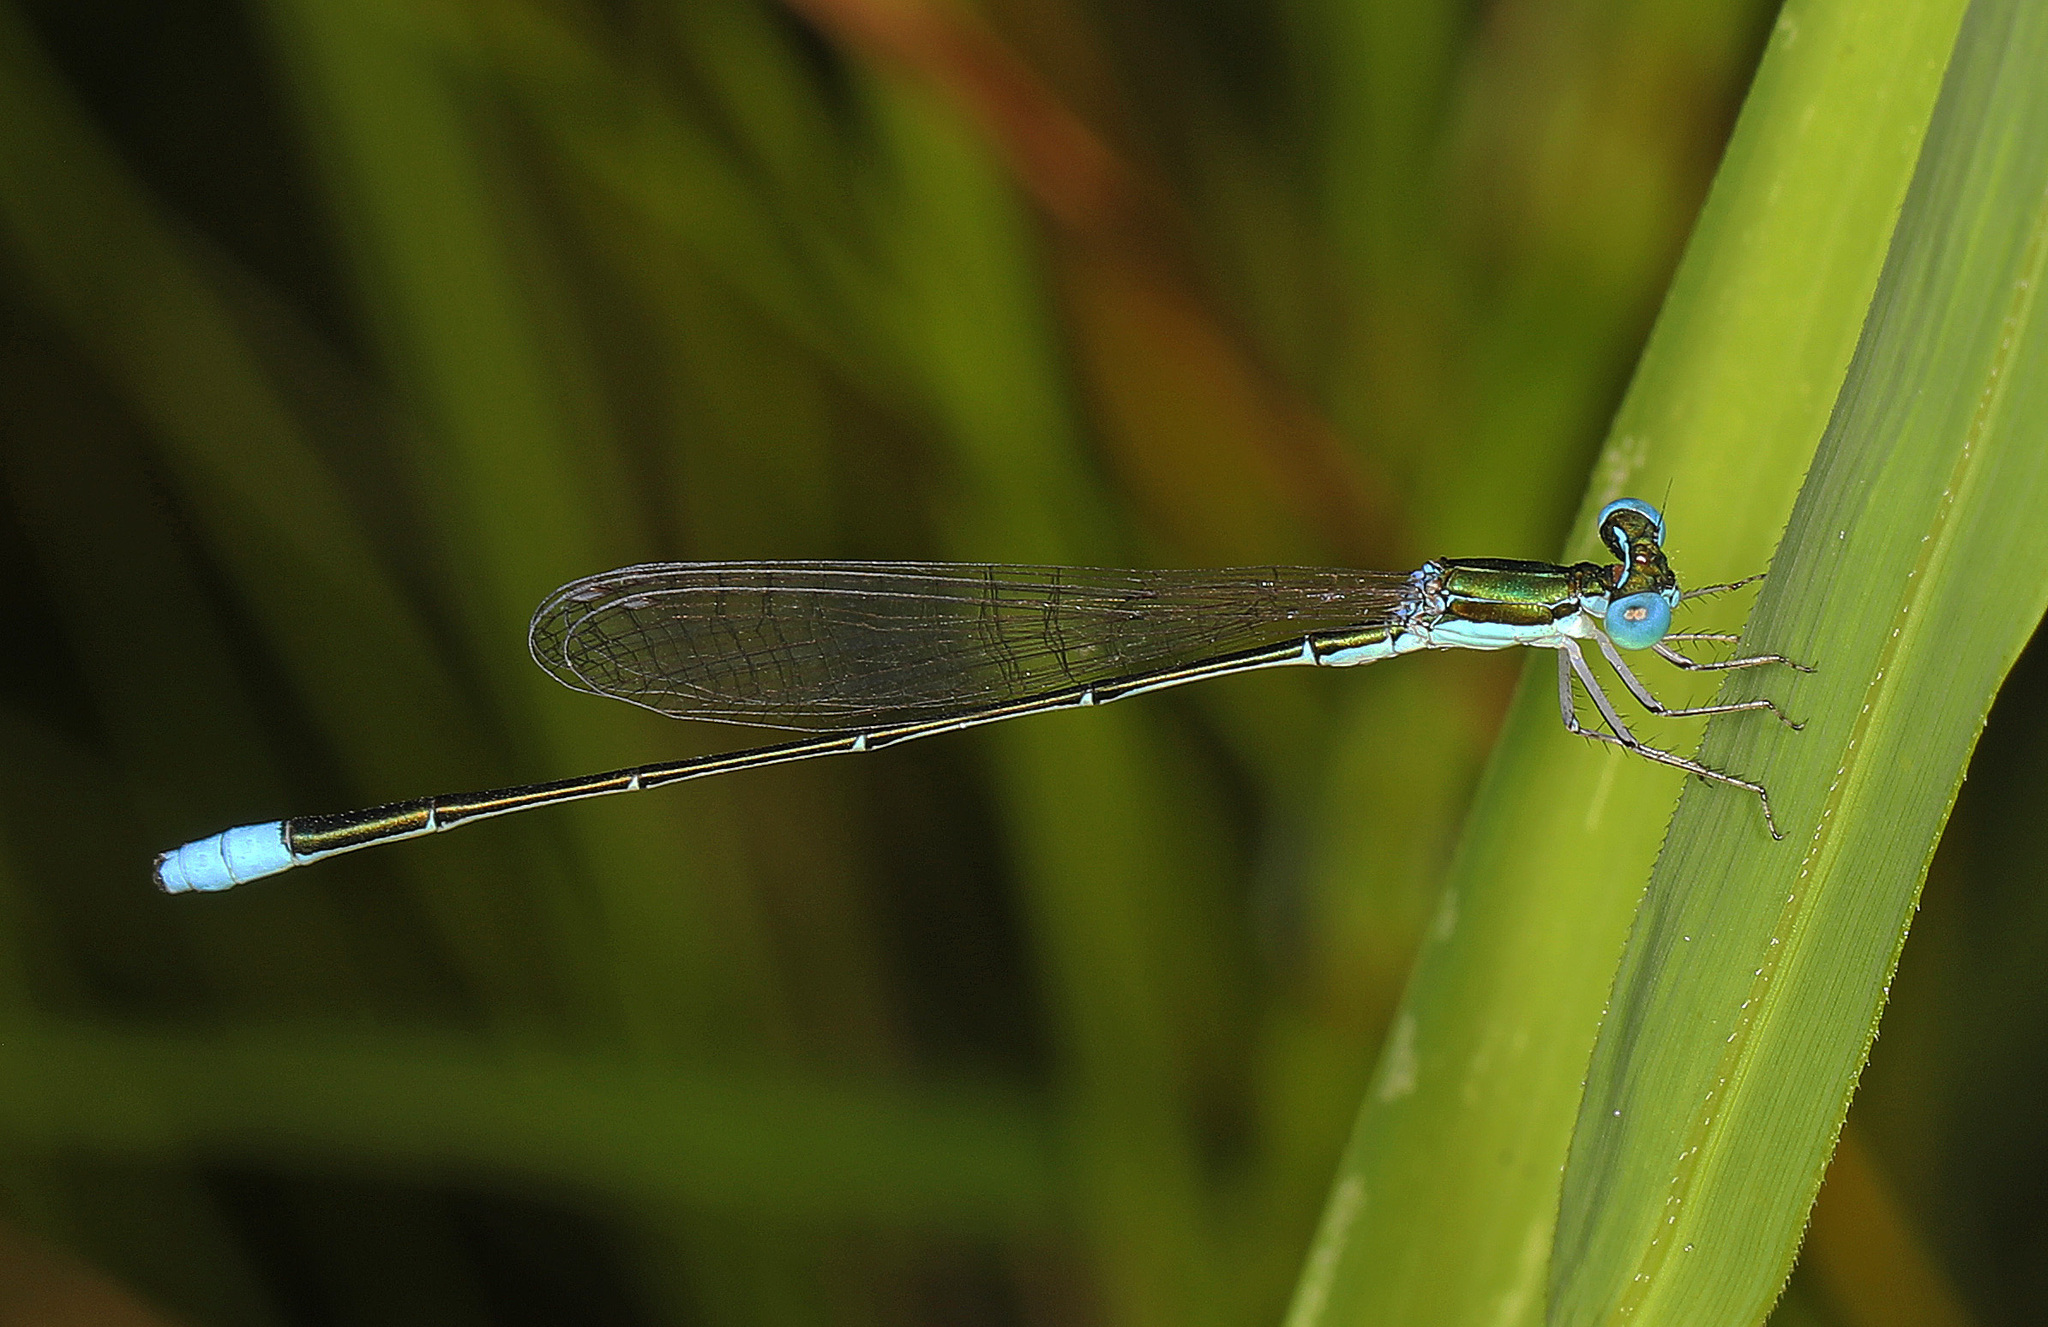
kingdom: Animalia
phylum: Arthropoda
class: Insecta
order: Odonata
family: Coenagrionidae
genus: Nehalennia
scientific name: Nehalennia gracilis
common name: Sphagnum sprite
